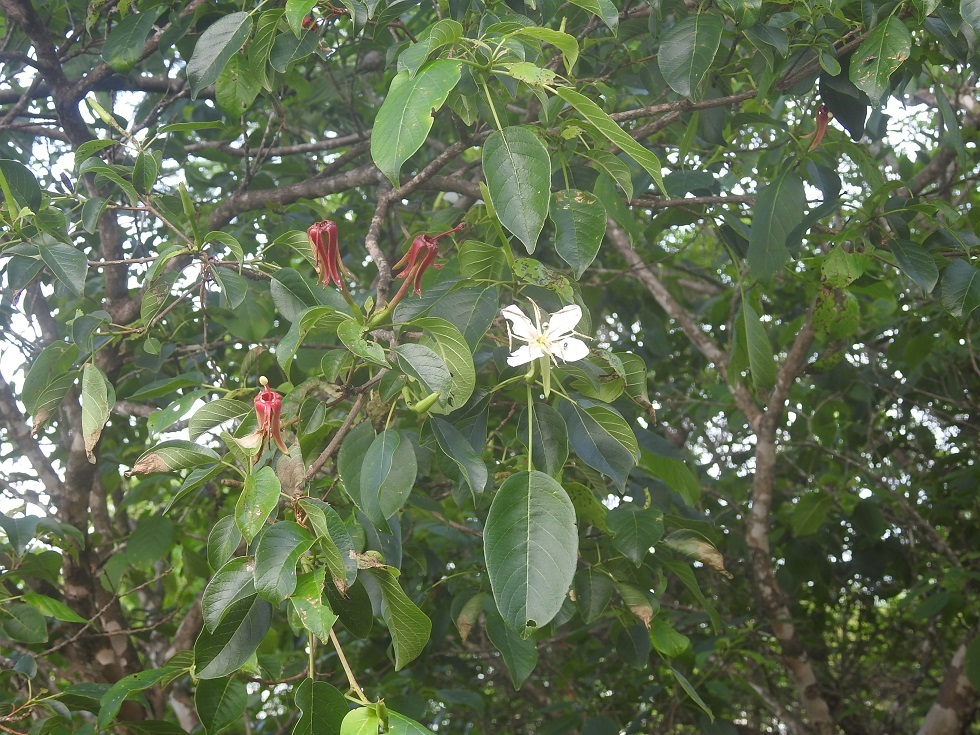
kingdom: Plantae
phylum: Tracheophyta
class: Magnoliopsida
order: Myrtales
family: Onagraceae
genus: Hauya
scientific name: Hauya elegans
